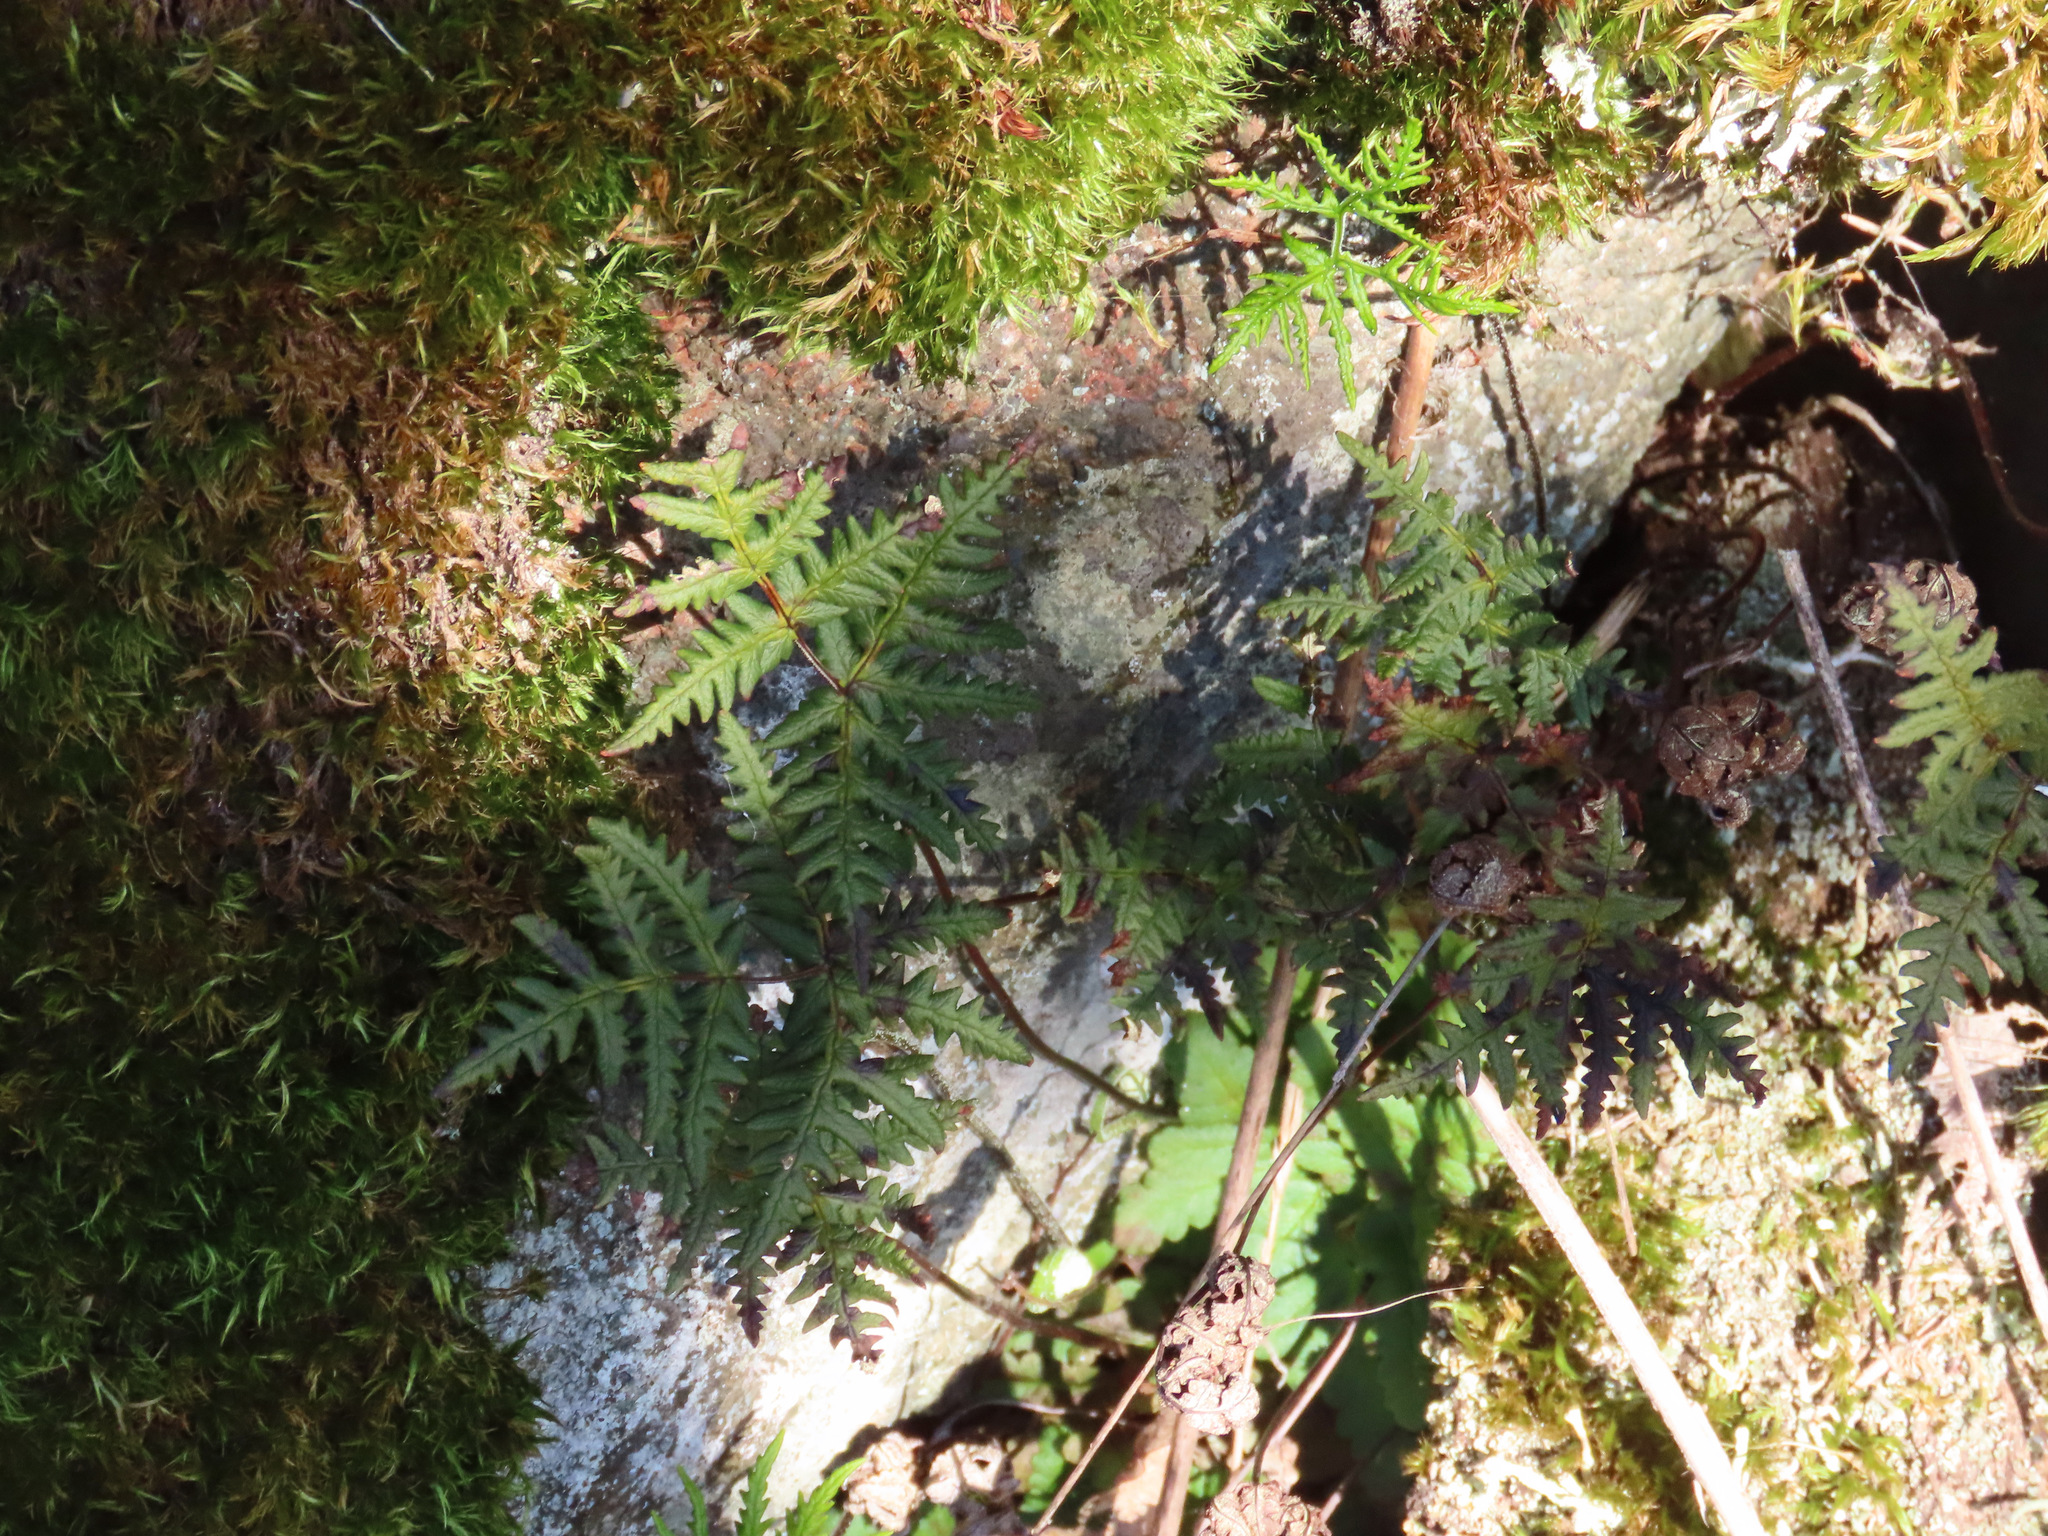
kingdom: Plantae
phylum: Tracheophyta
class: Polypodiopsida
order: Polypodiales
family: Pteridaceae
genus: Pentagramma
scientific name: Pentagramma triangularis
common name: Gold fern
